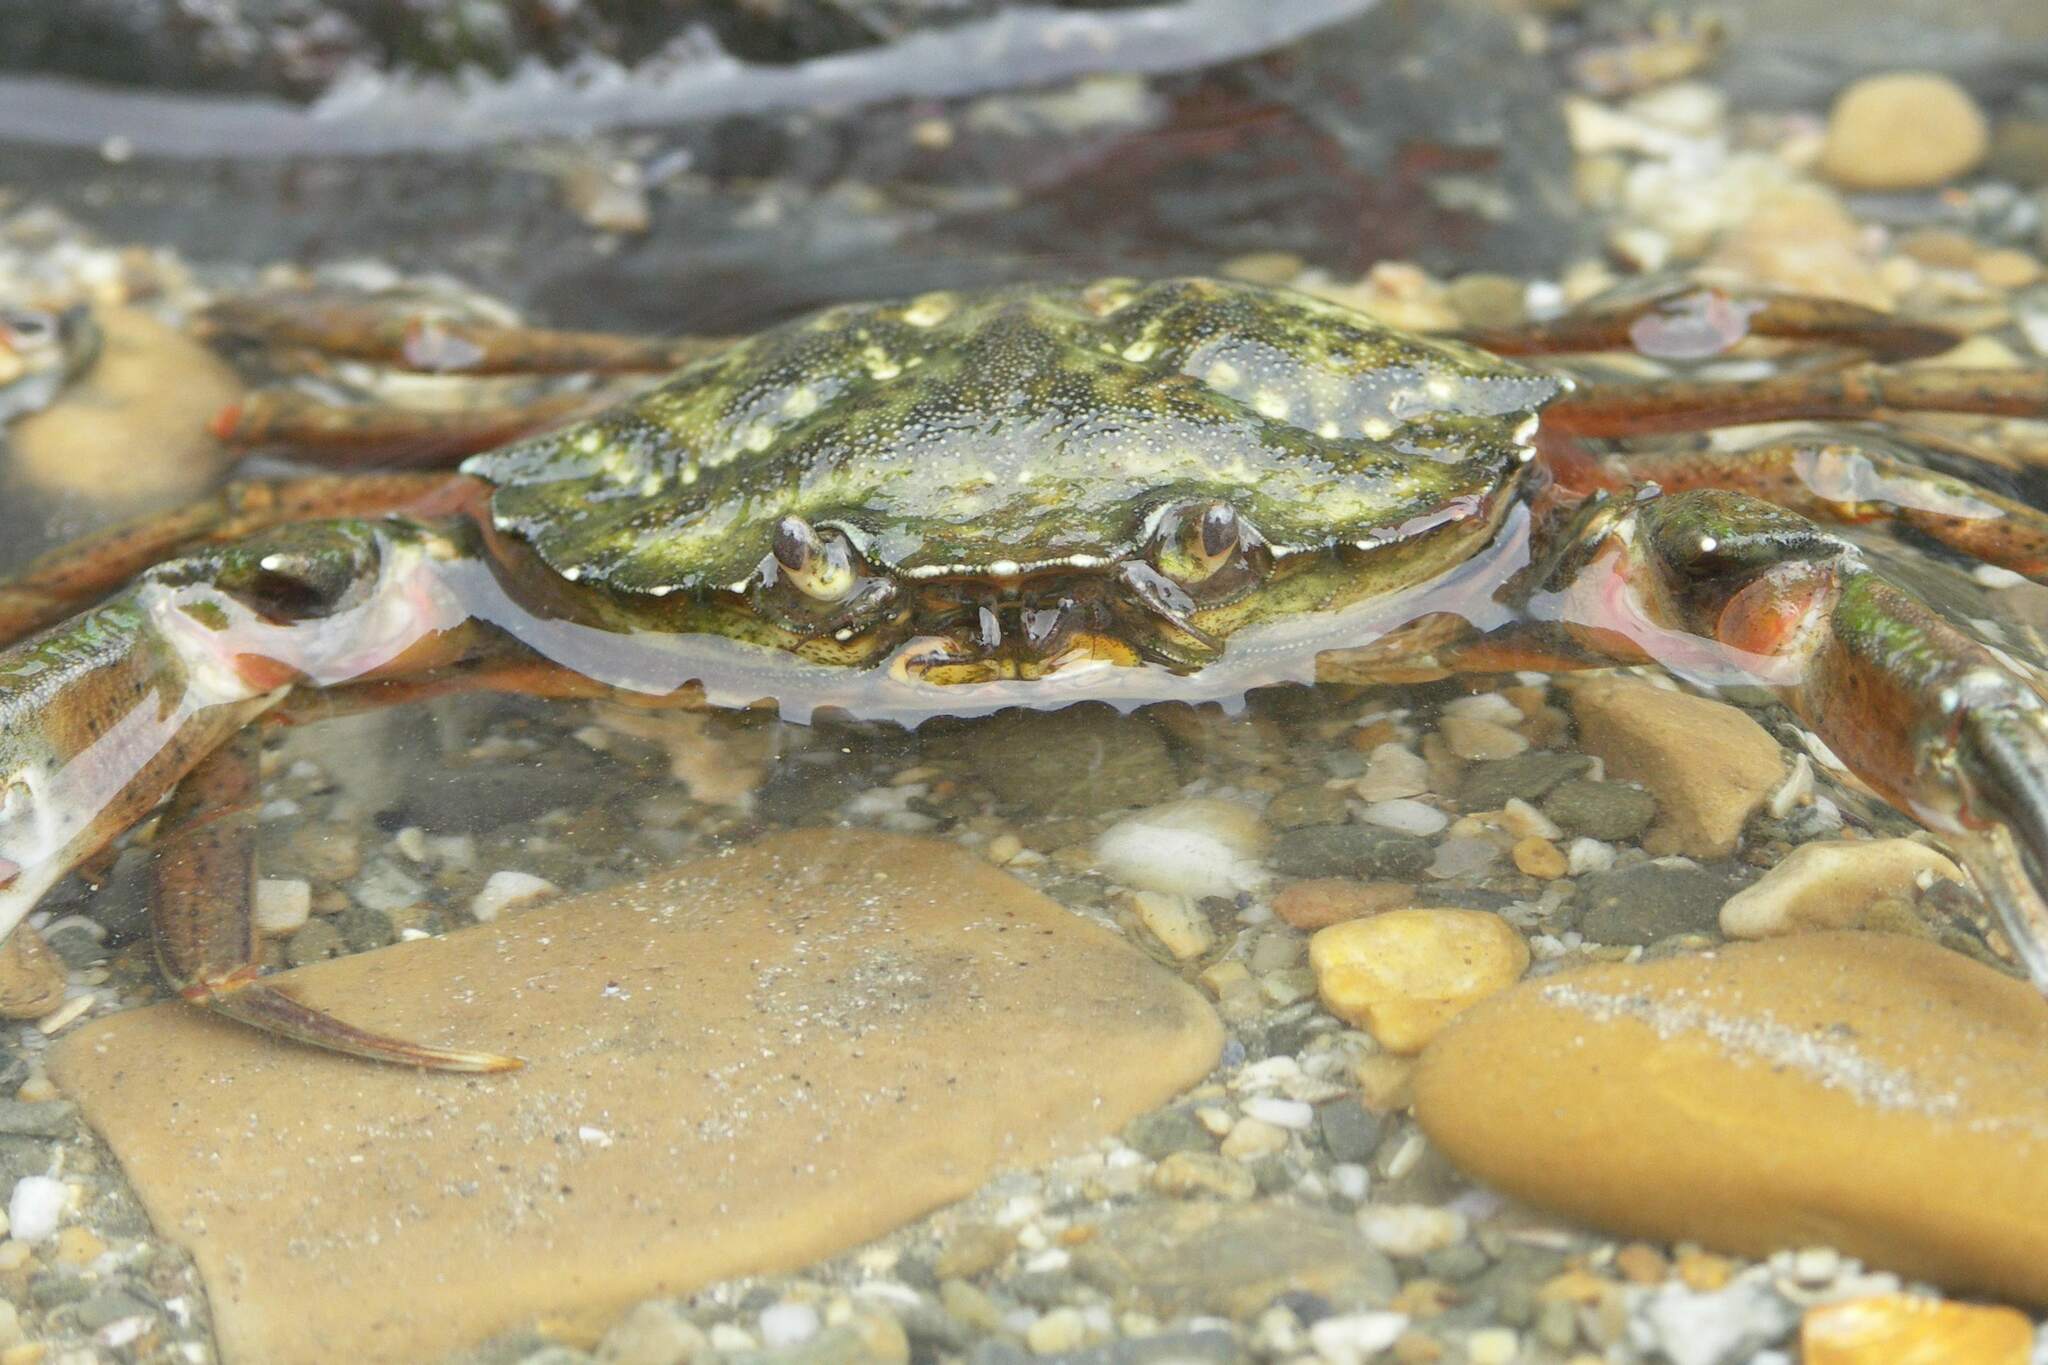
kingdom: Animalia
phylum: Arthropoda
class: Malacostraca
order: Decapoda
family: Carcinidae
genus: Carcinus
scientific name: Carcinus maenas
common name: European green crab
